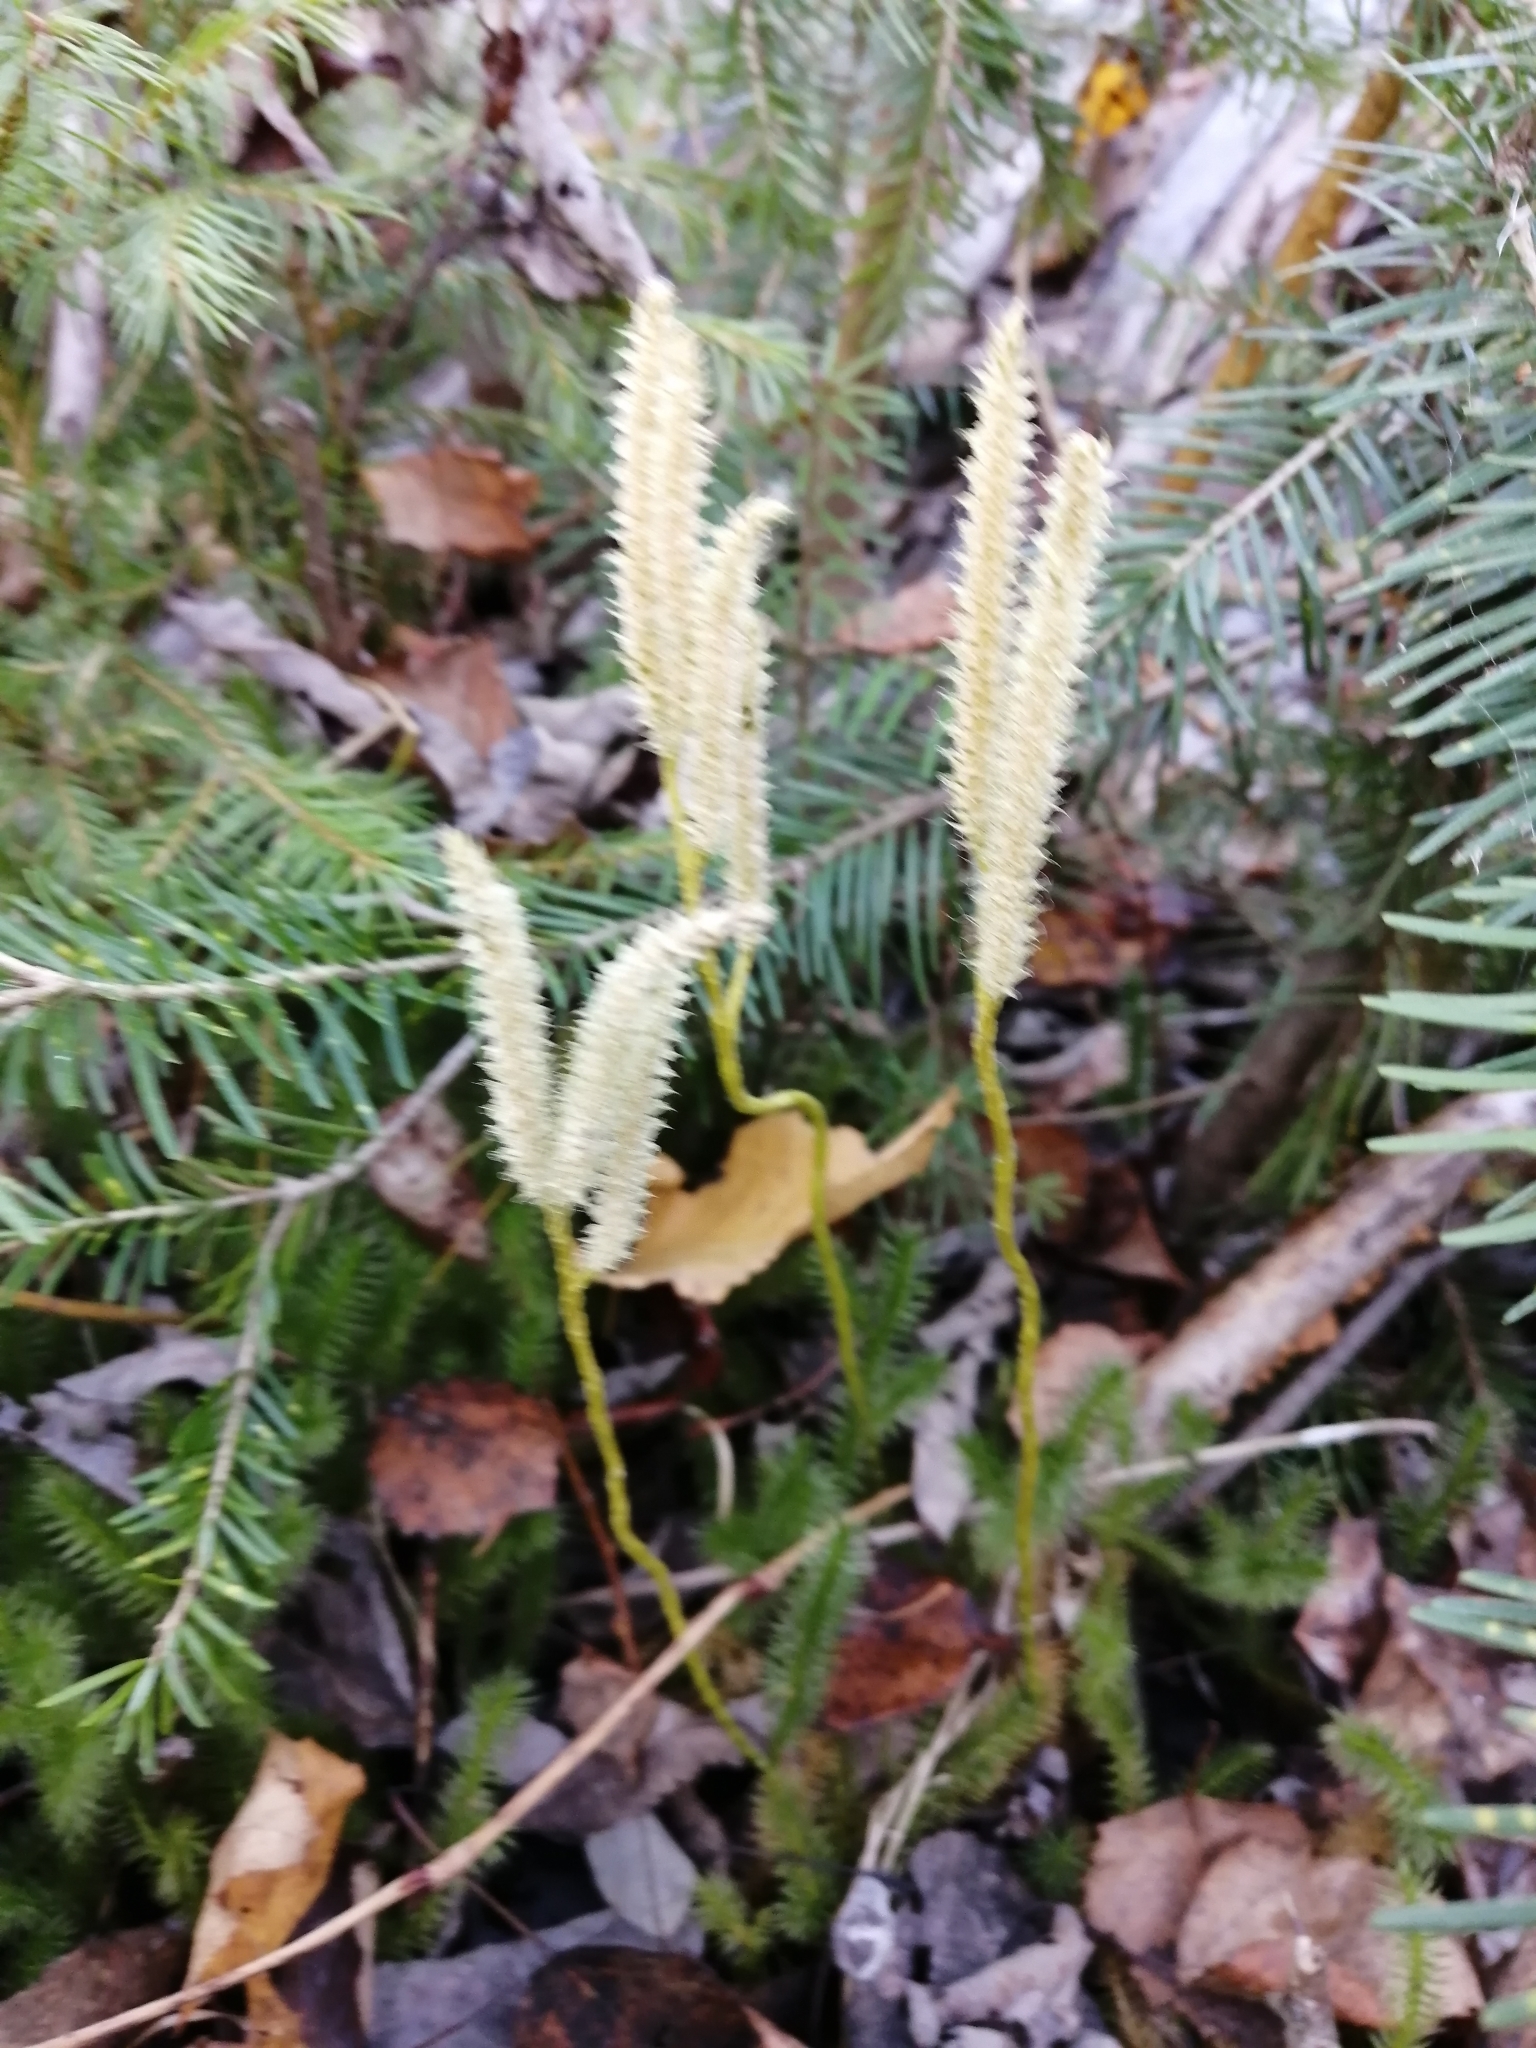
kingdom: Plantae
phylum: Tracheophyta
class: Lycopodiopsida
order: Lycopodiales
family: Lycopodiaceae
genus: Lycopodium
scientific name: Lycopodium clavatum
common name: Stag's-horn clubmoss
